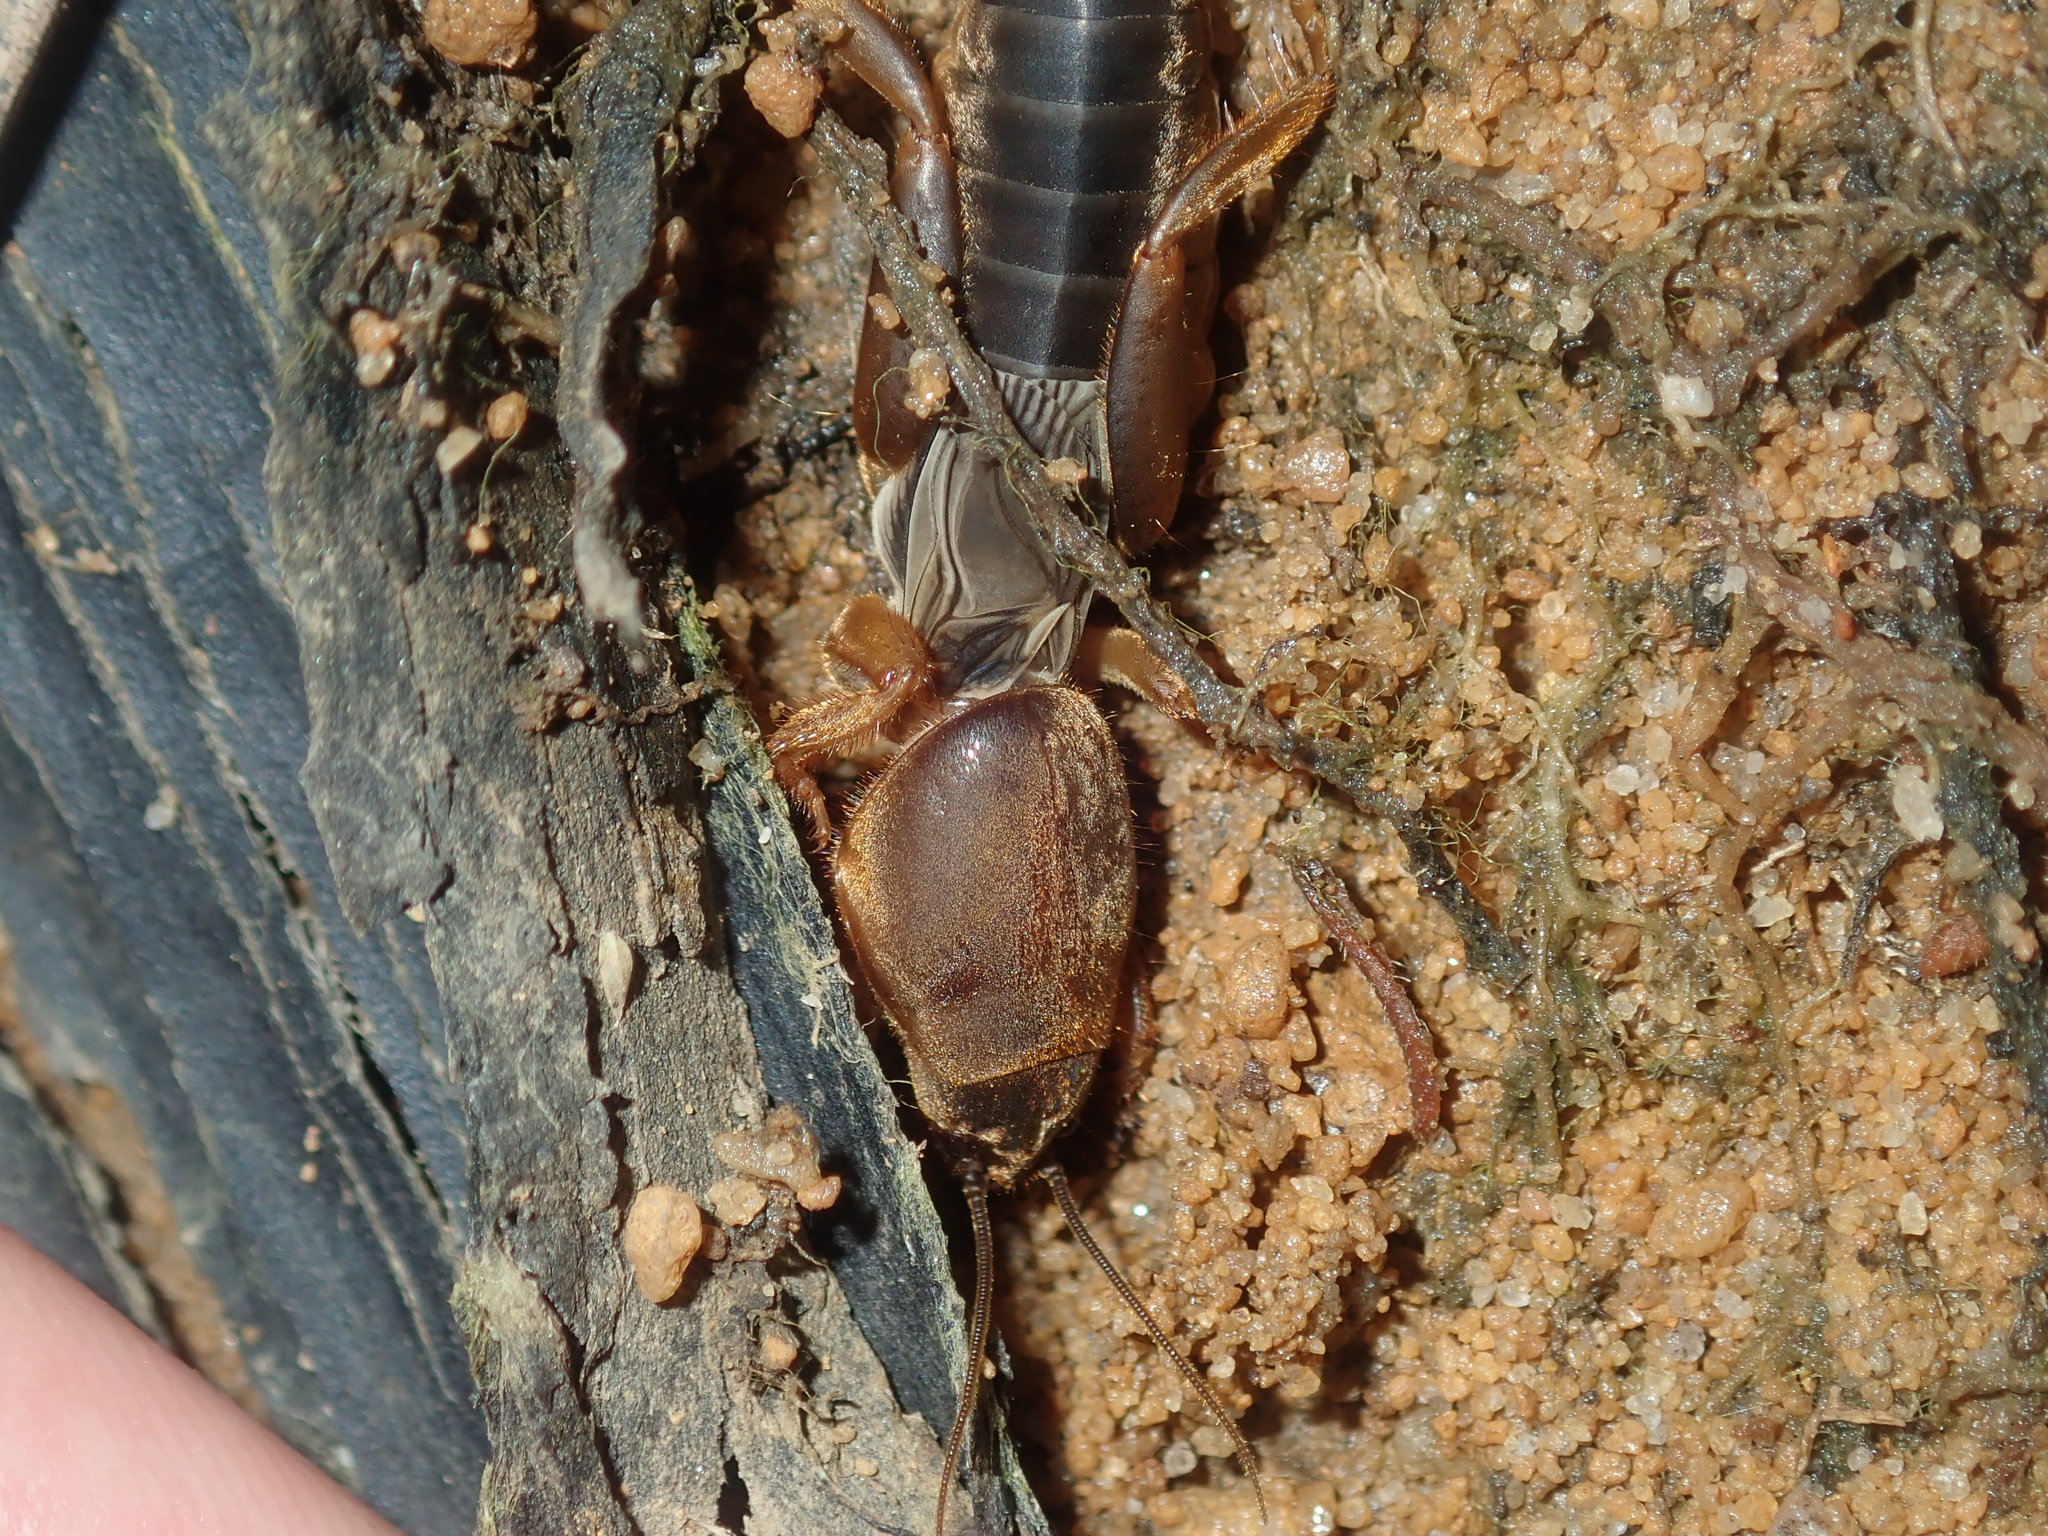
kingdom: Animalia
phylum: Arthropoda
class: Insecta
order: Orthoptera
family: Gryllotalpidae
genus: Gryllotalpa
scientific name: Gryllotalpa australis
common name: Southern mole cricket
